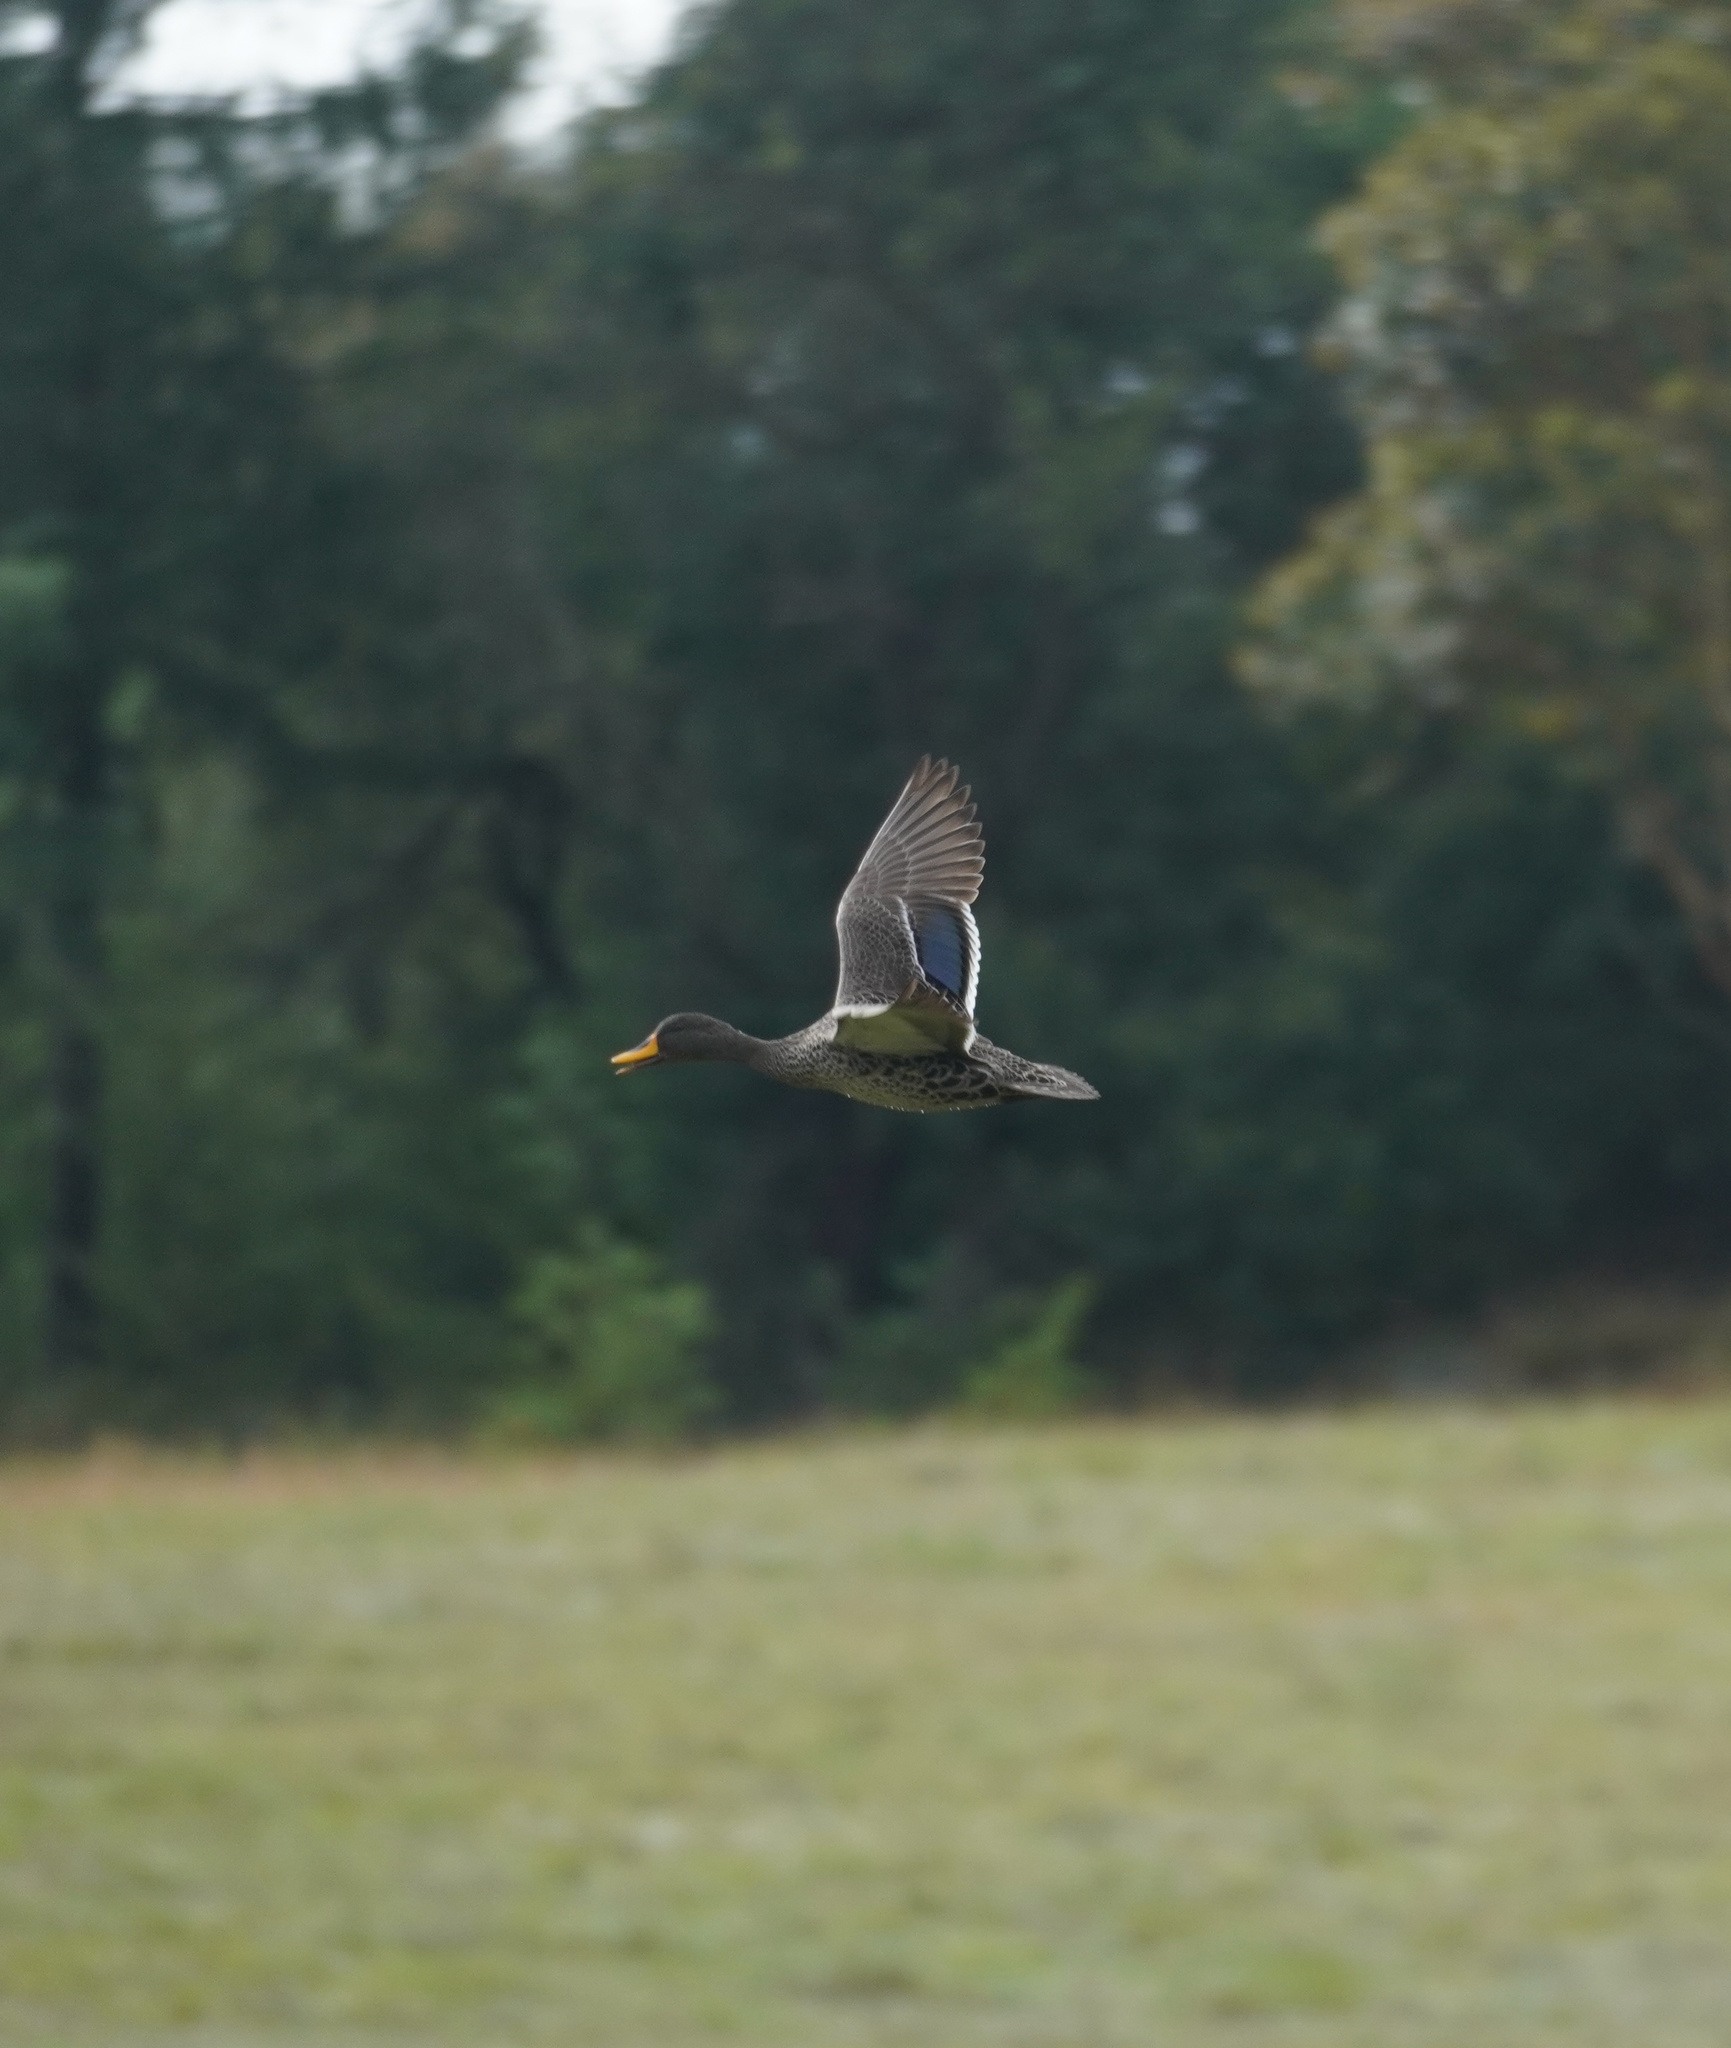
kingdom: Animalia
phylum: Chordata
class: Aves
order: Anseriformes
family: Anatidae
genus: Anas
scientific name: Anas undulata
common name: Yellow-billed duck
